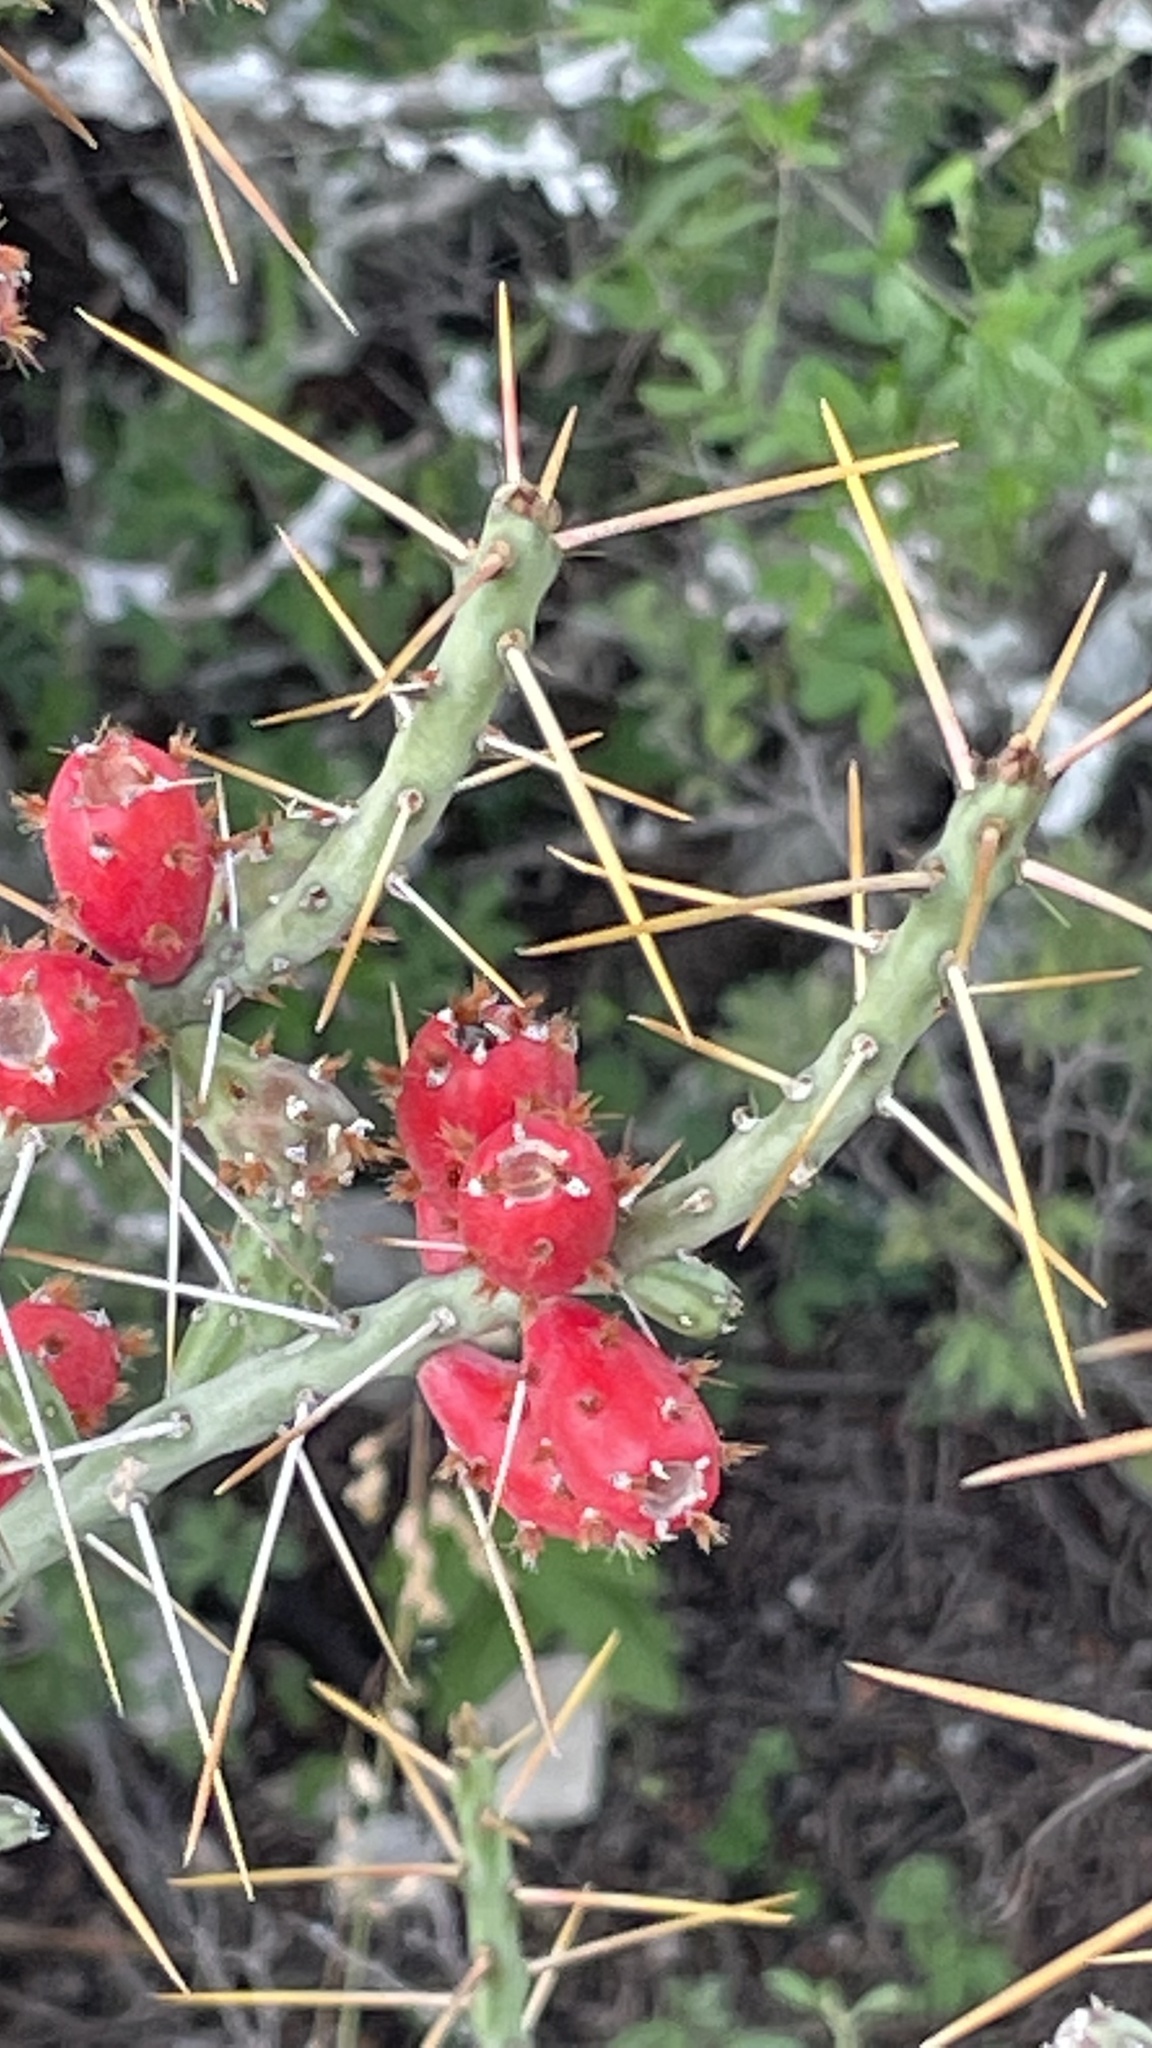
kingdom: Plantae
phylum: Tracheophyta
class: Magnoliopsida
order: Caryophyllales
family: Cactaceae
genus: Cylindropuntia
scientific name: Cylindropuntia leptocaulis
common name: Christmas cactus
